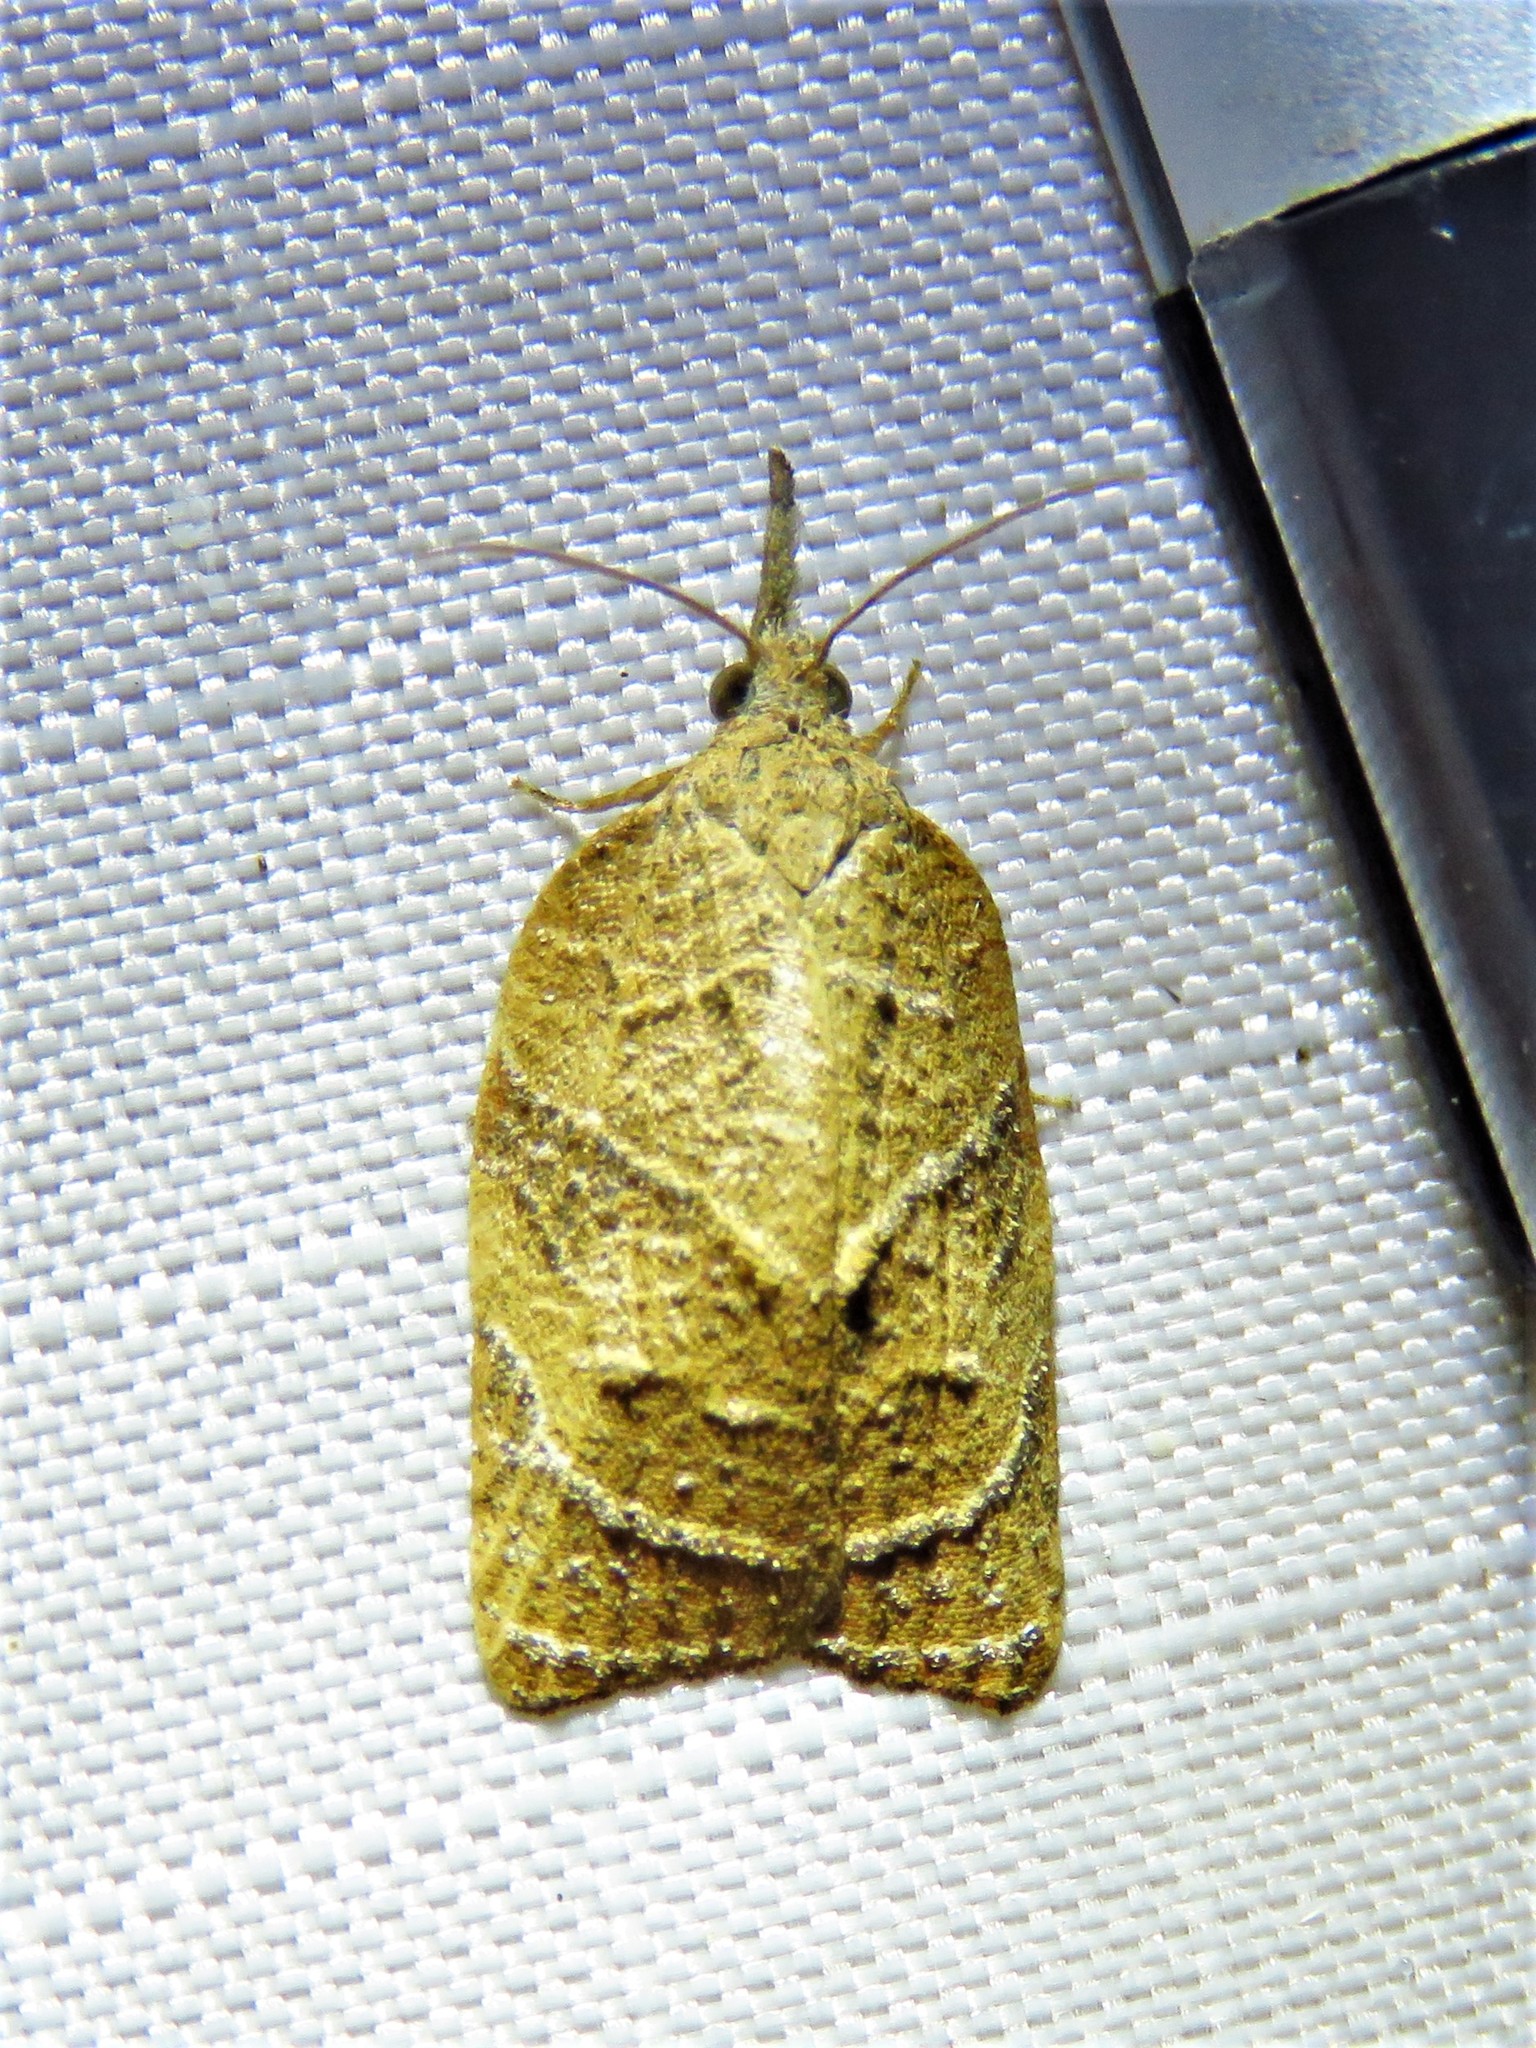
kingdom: Animalia
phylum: Arthropoda
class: Insecta
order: Lepidoptera
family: Tortricidae
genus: Platynota
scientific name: Platynota rostrana
